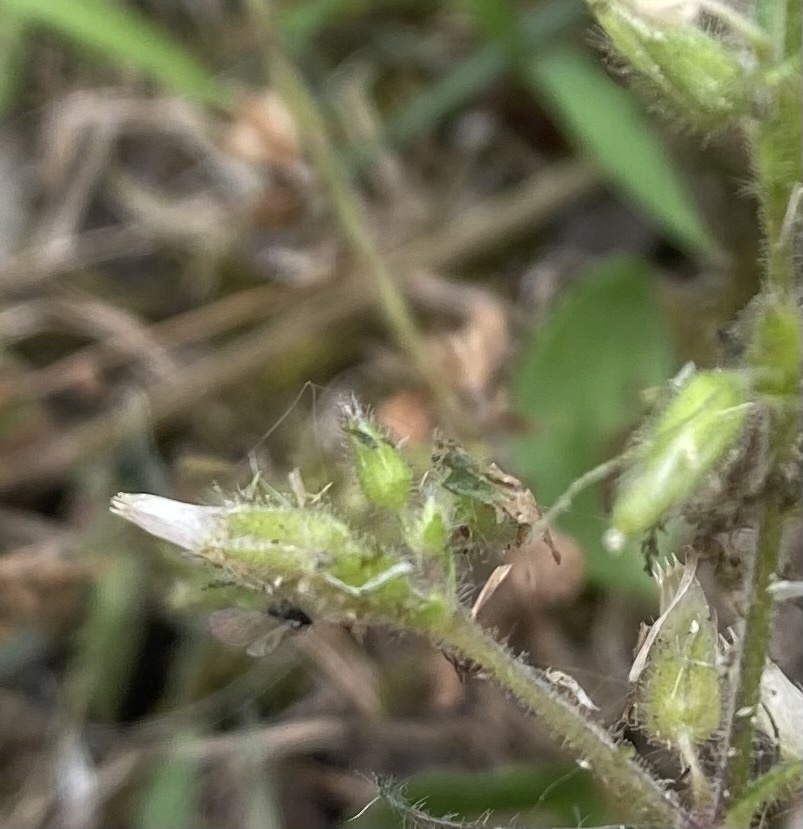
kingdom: Plantae
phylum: Tracheophyta
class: Magnoliopsida
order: Caryophyllales
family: Caryophyllaceae
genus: Cerastium
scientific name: Cerastium glomeratum
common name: Sticky chickweed
